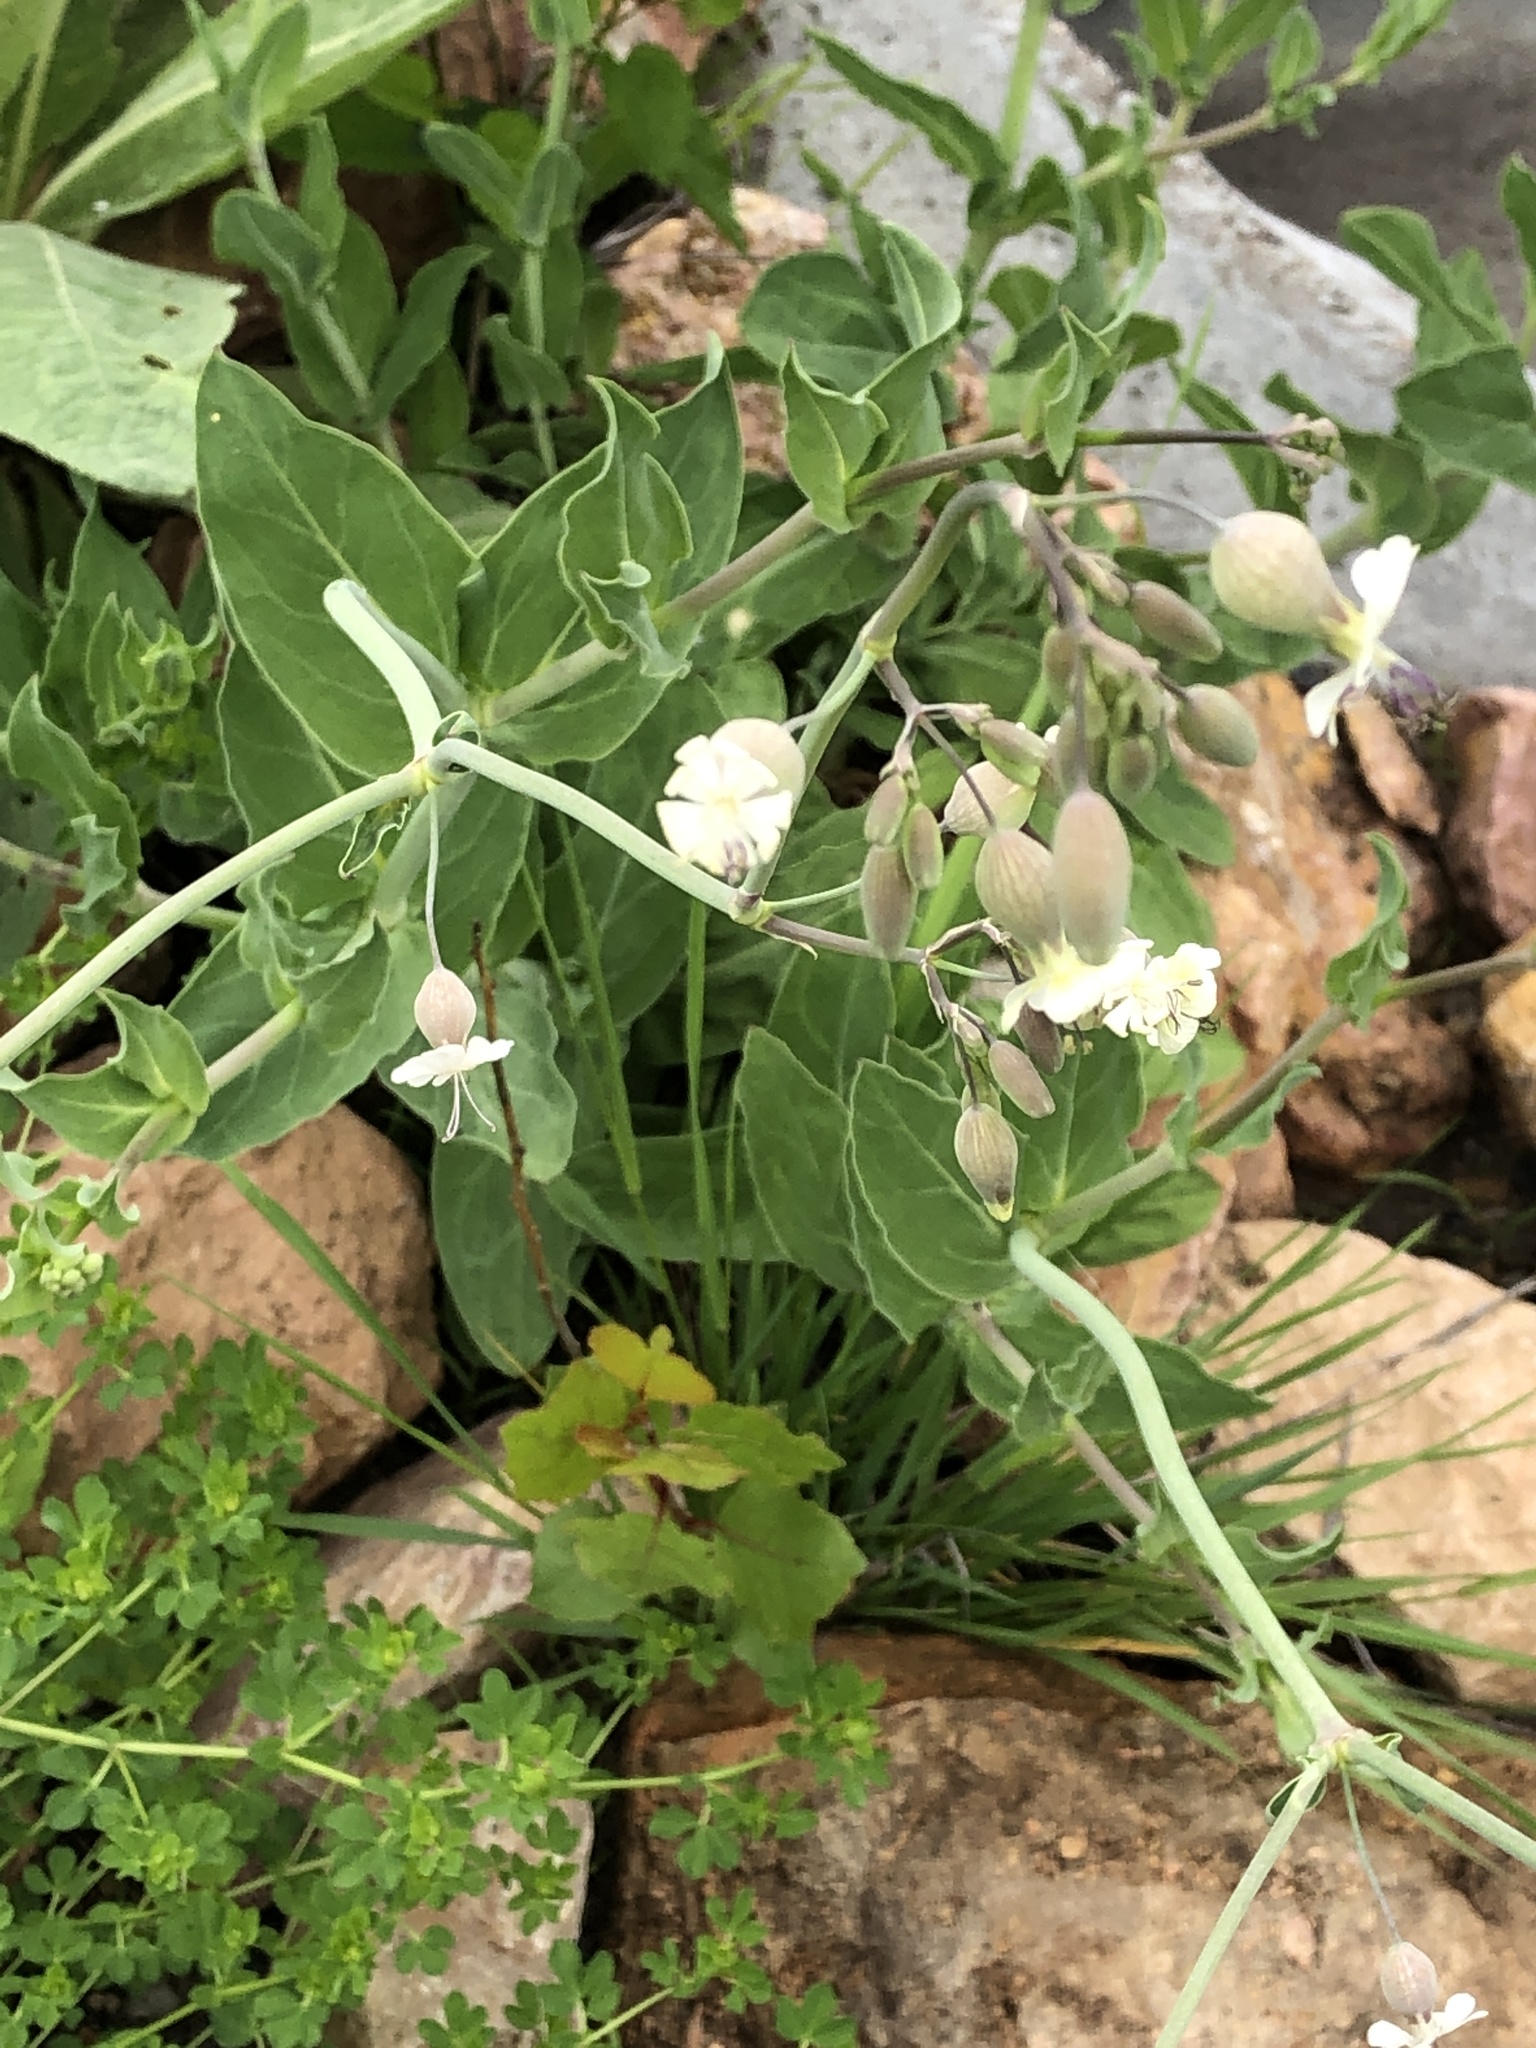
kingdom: Plantae
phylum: Tracheophyta
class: Magnoliopsida
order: Caryophyllales
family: Caryophyllaceae
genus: Silene
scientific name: Silene csereii
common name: Balkan catchfly
